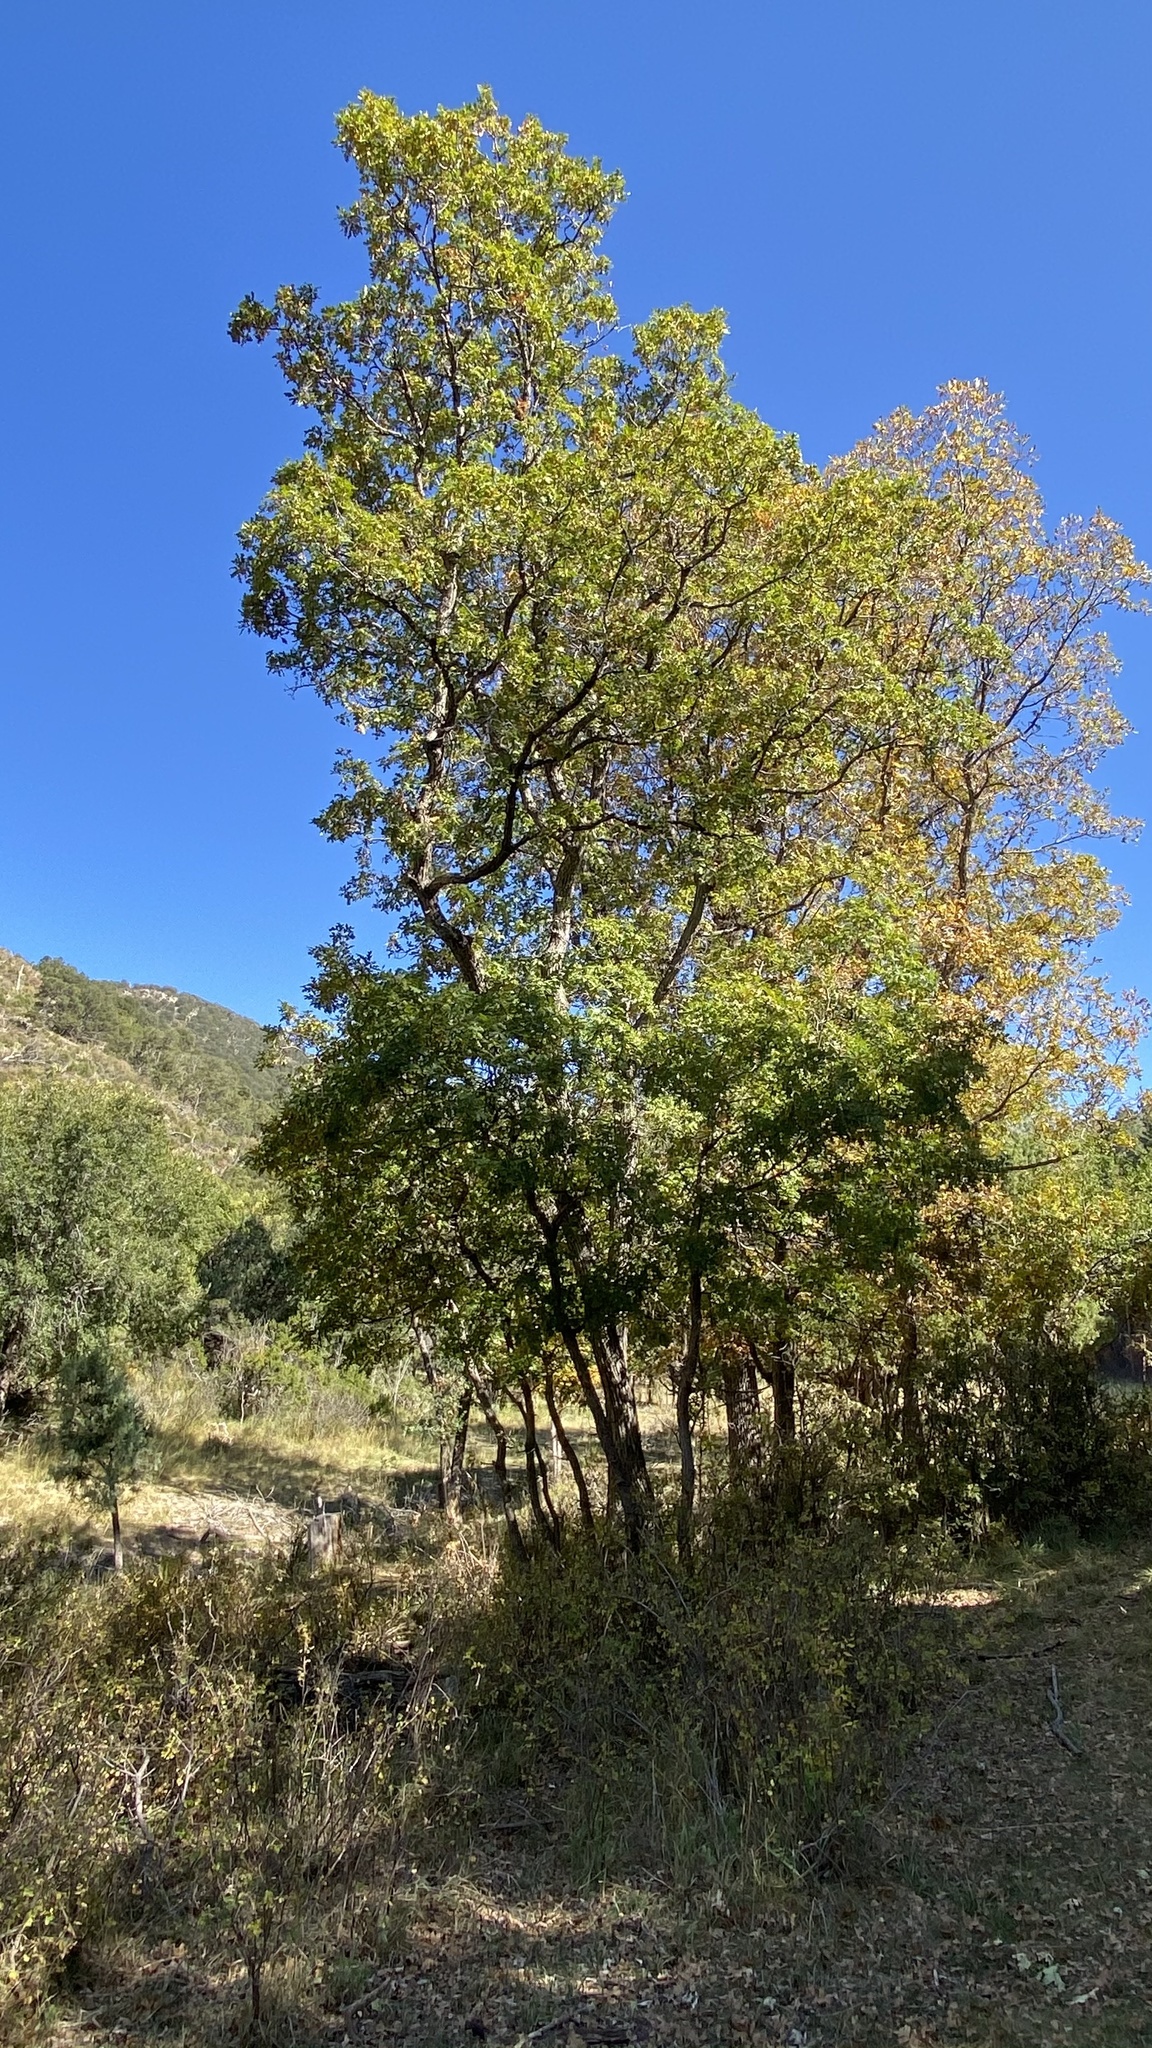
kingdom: Plantae
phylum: Tracheophyta
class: Magnoliopsida
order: Fagales
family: Fagaceae
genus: Quercus
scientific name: Quercus gambelii
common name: Gambel oak
